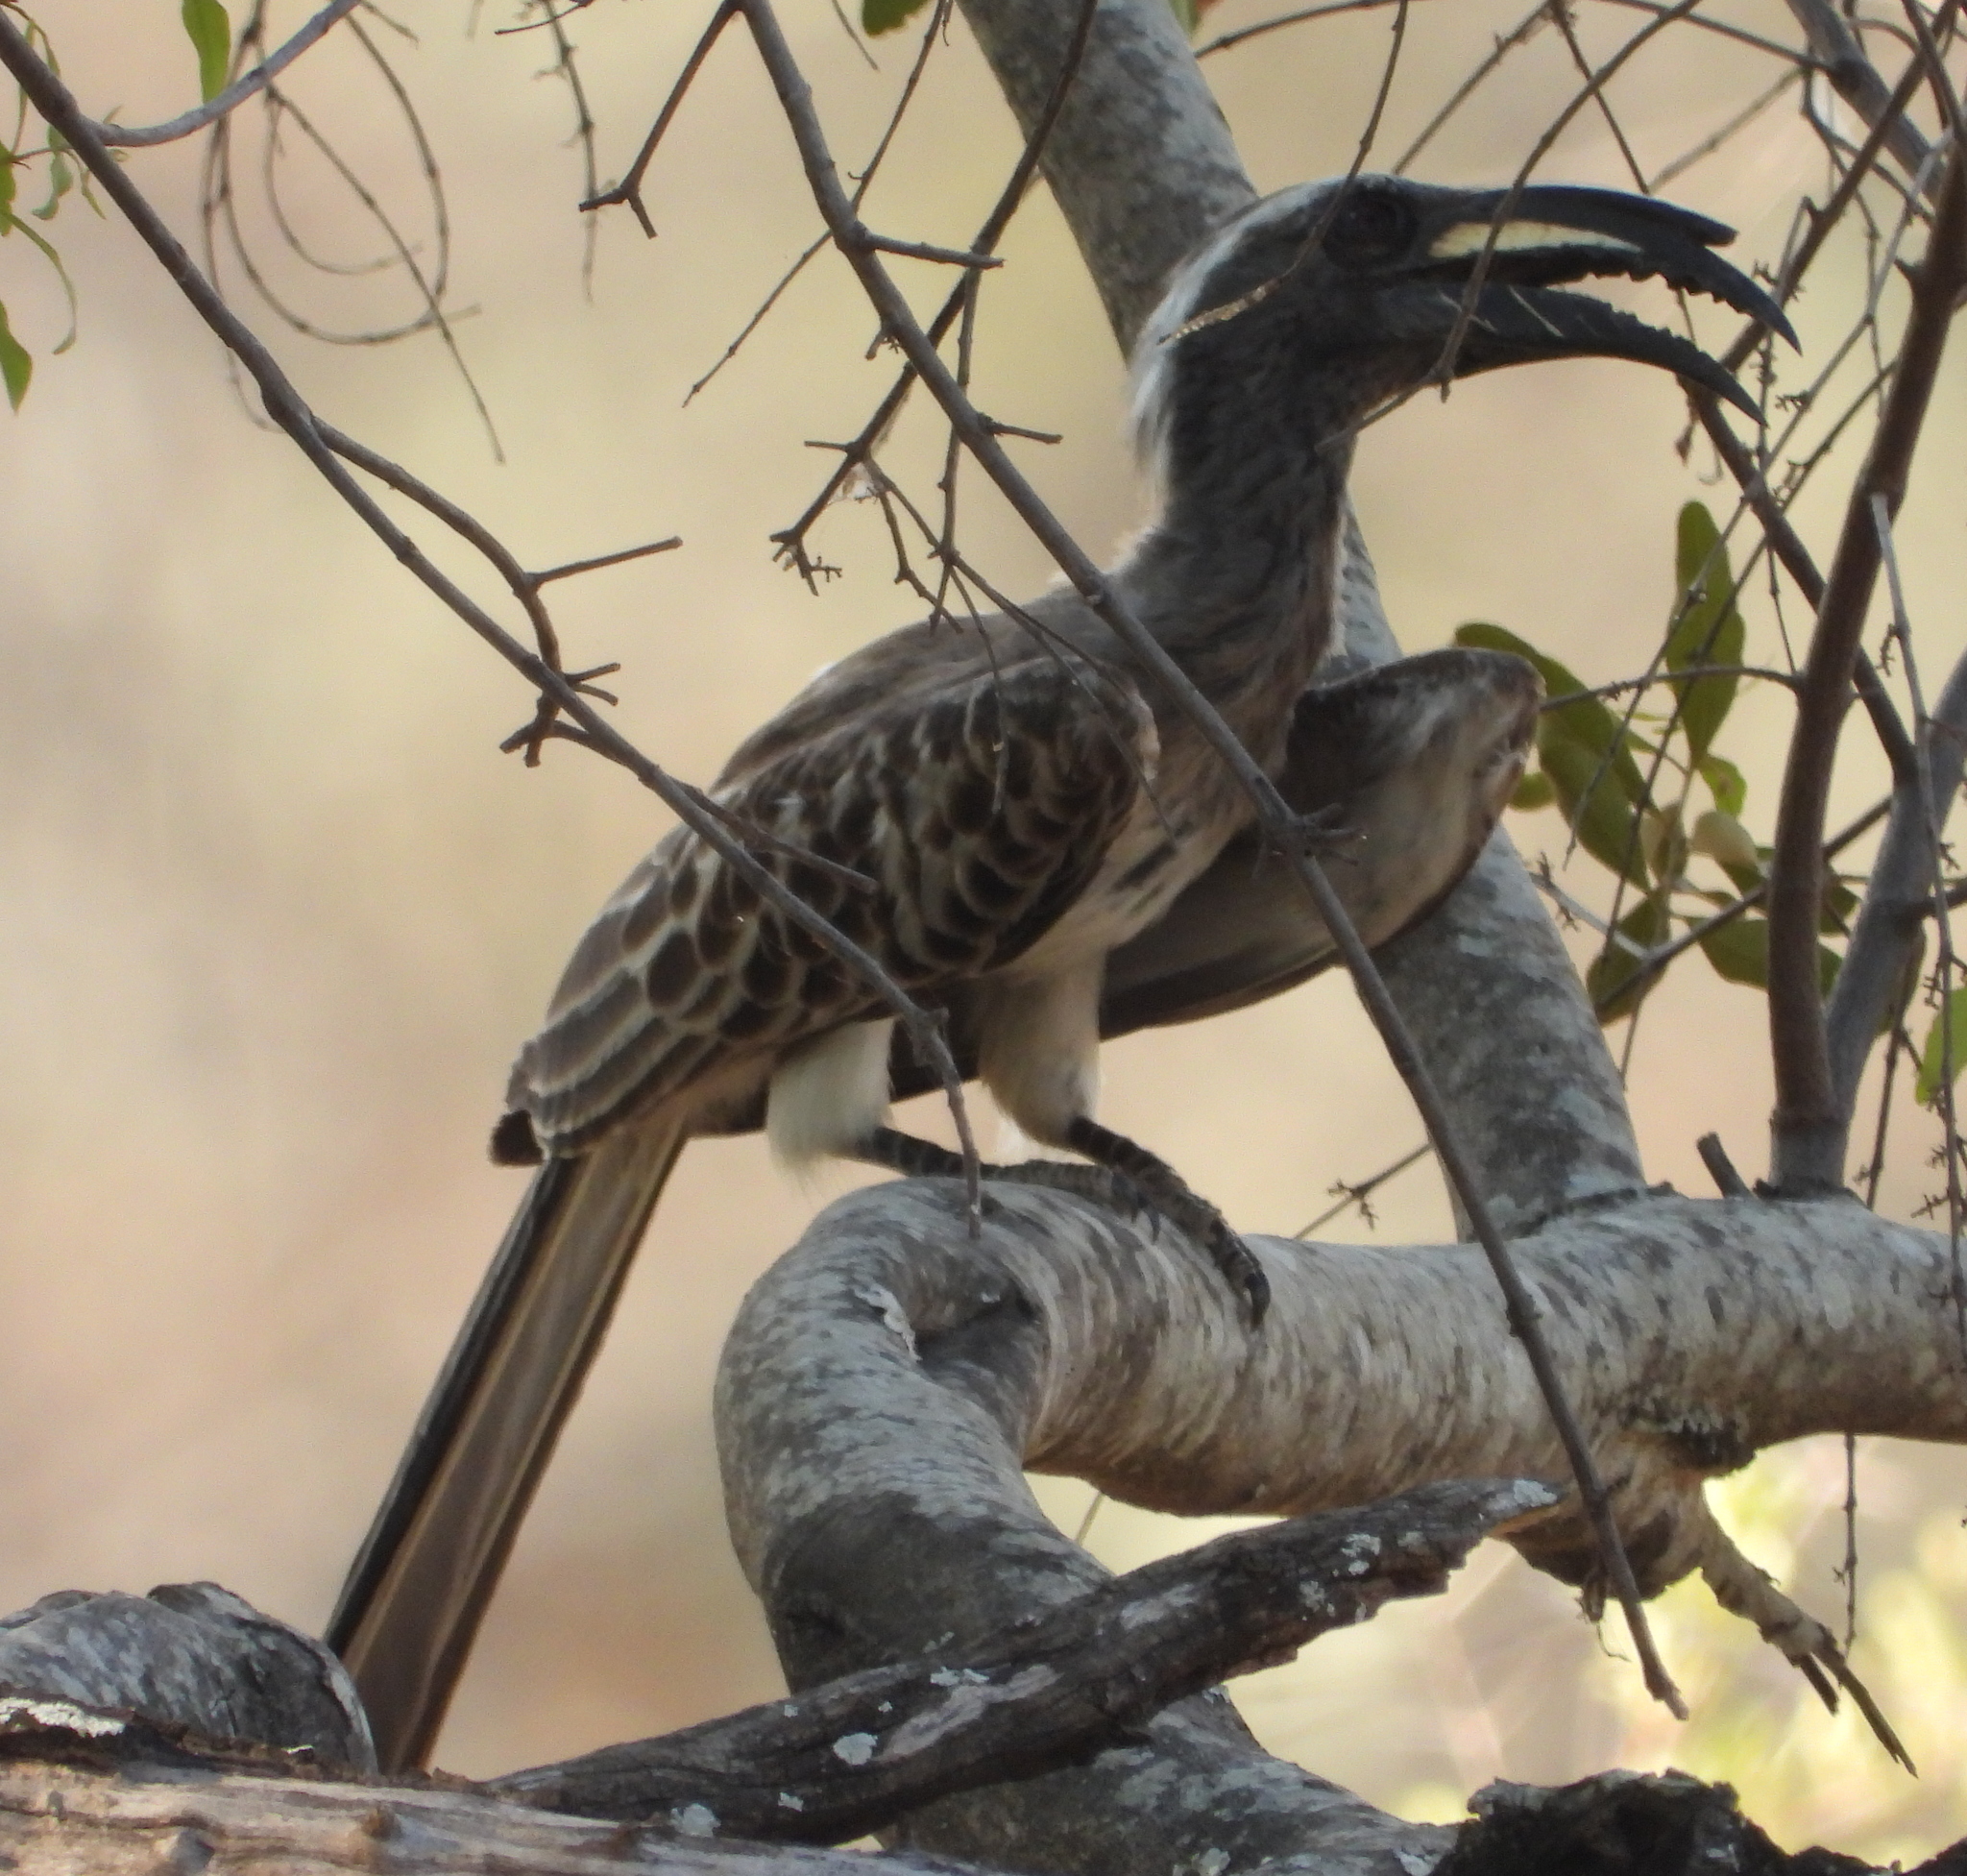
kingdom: Animalia
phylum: Chordata
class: Aves
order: Bucerotiformes
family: Bucerotidae
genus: Lophoceros
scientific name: Lophoceros nasutus
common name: African grey hornbill
